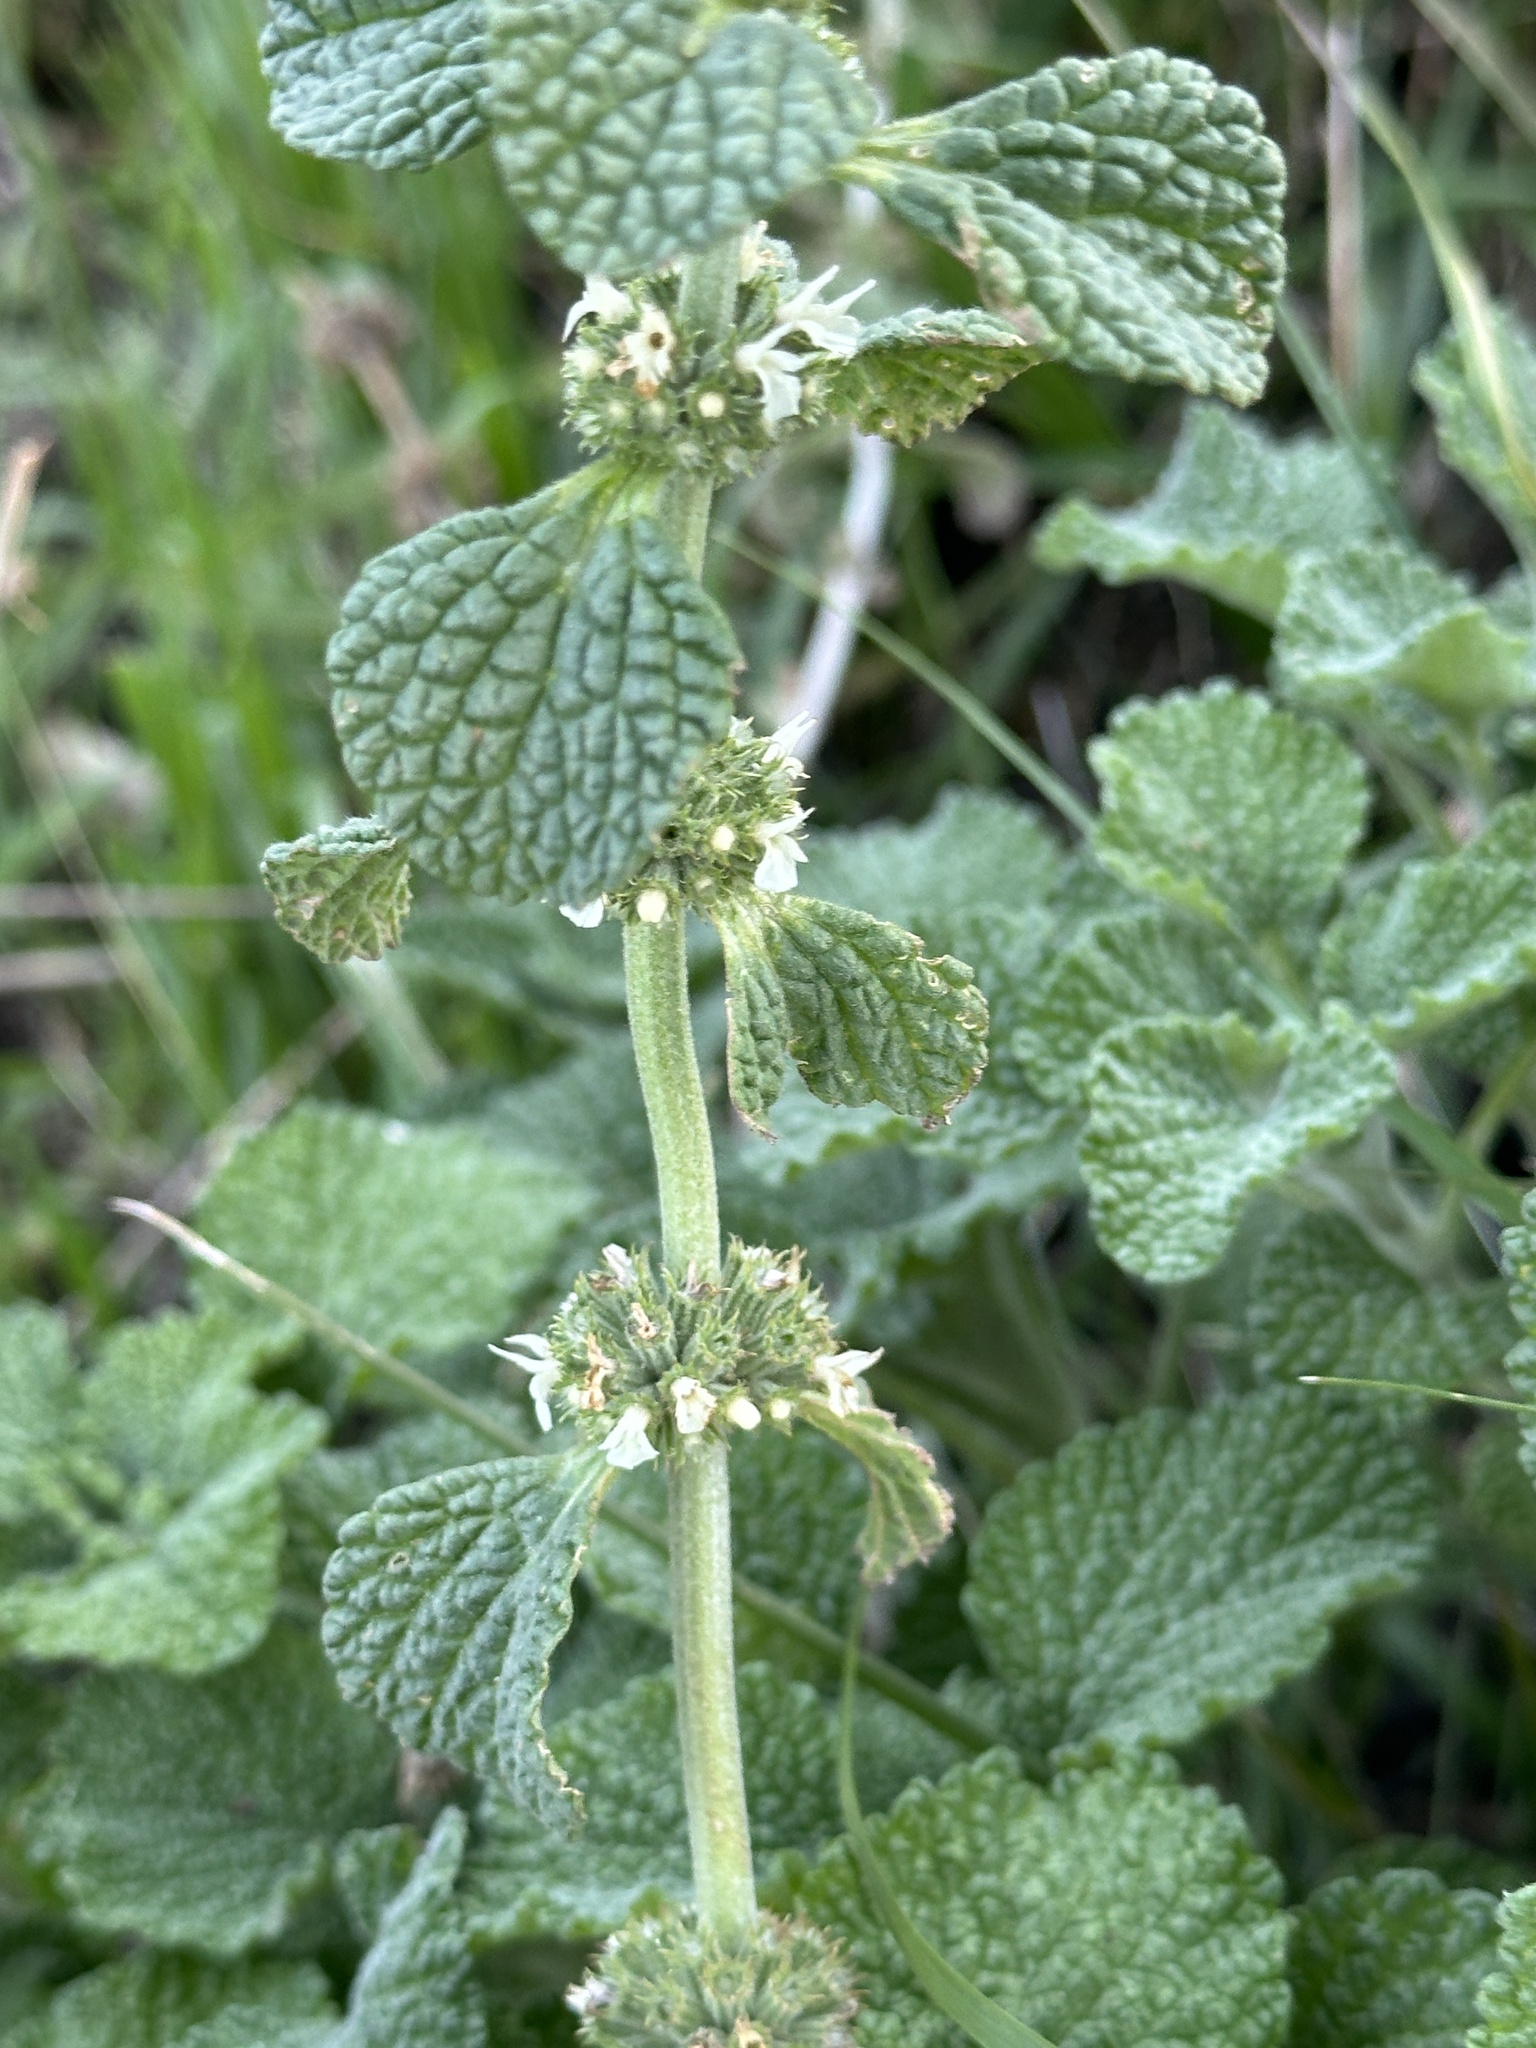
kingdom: Plantae
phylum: Tracheophyta
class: Magnoliopsida
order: Lamiales
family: Lamiaceae
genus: Marrubium
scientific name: Marrubium vulgare
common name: Horehound
